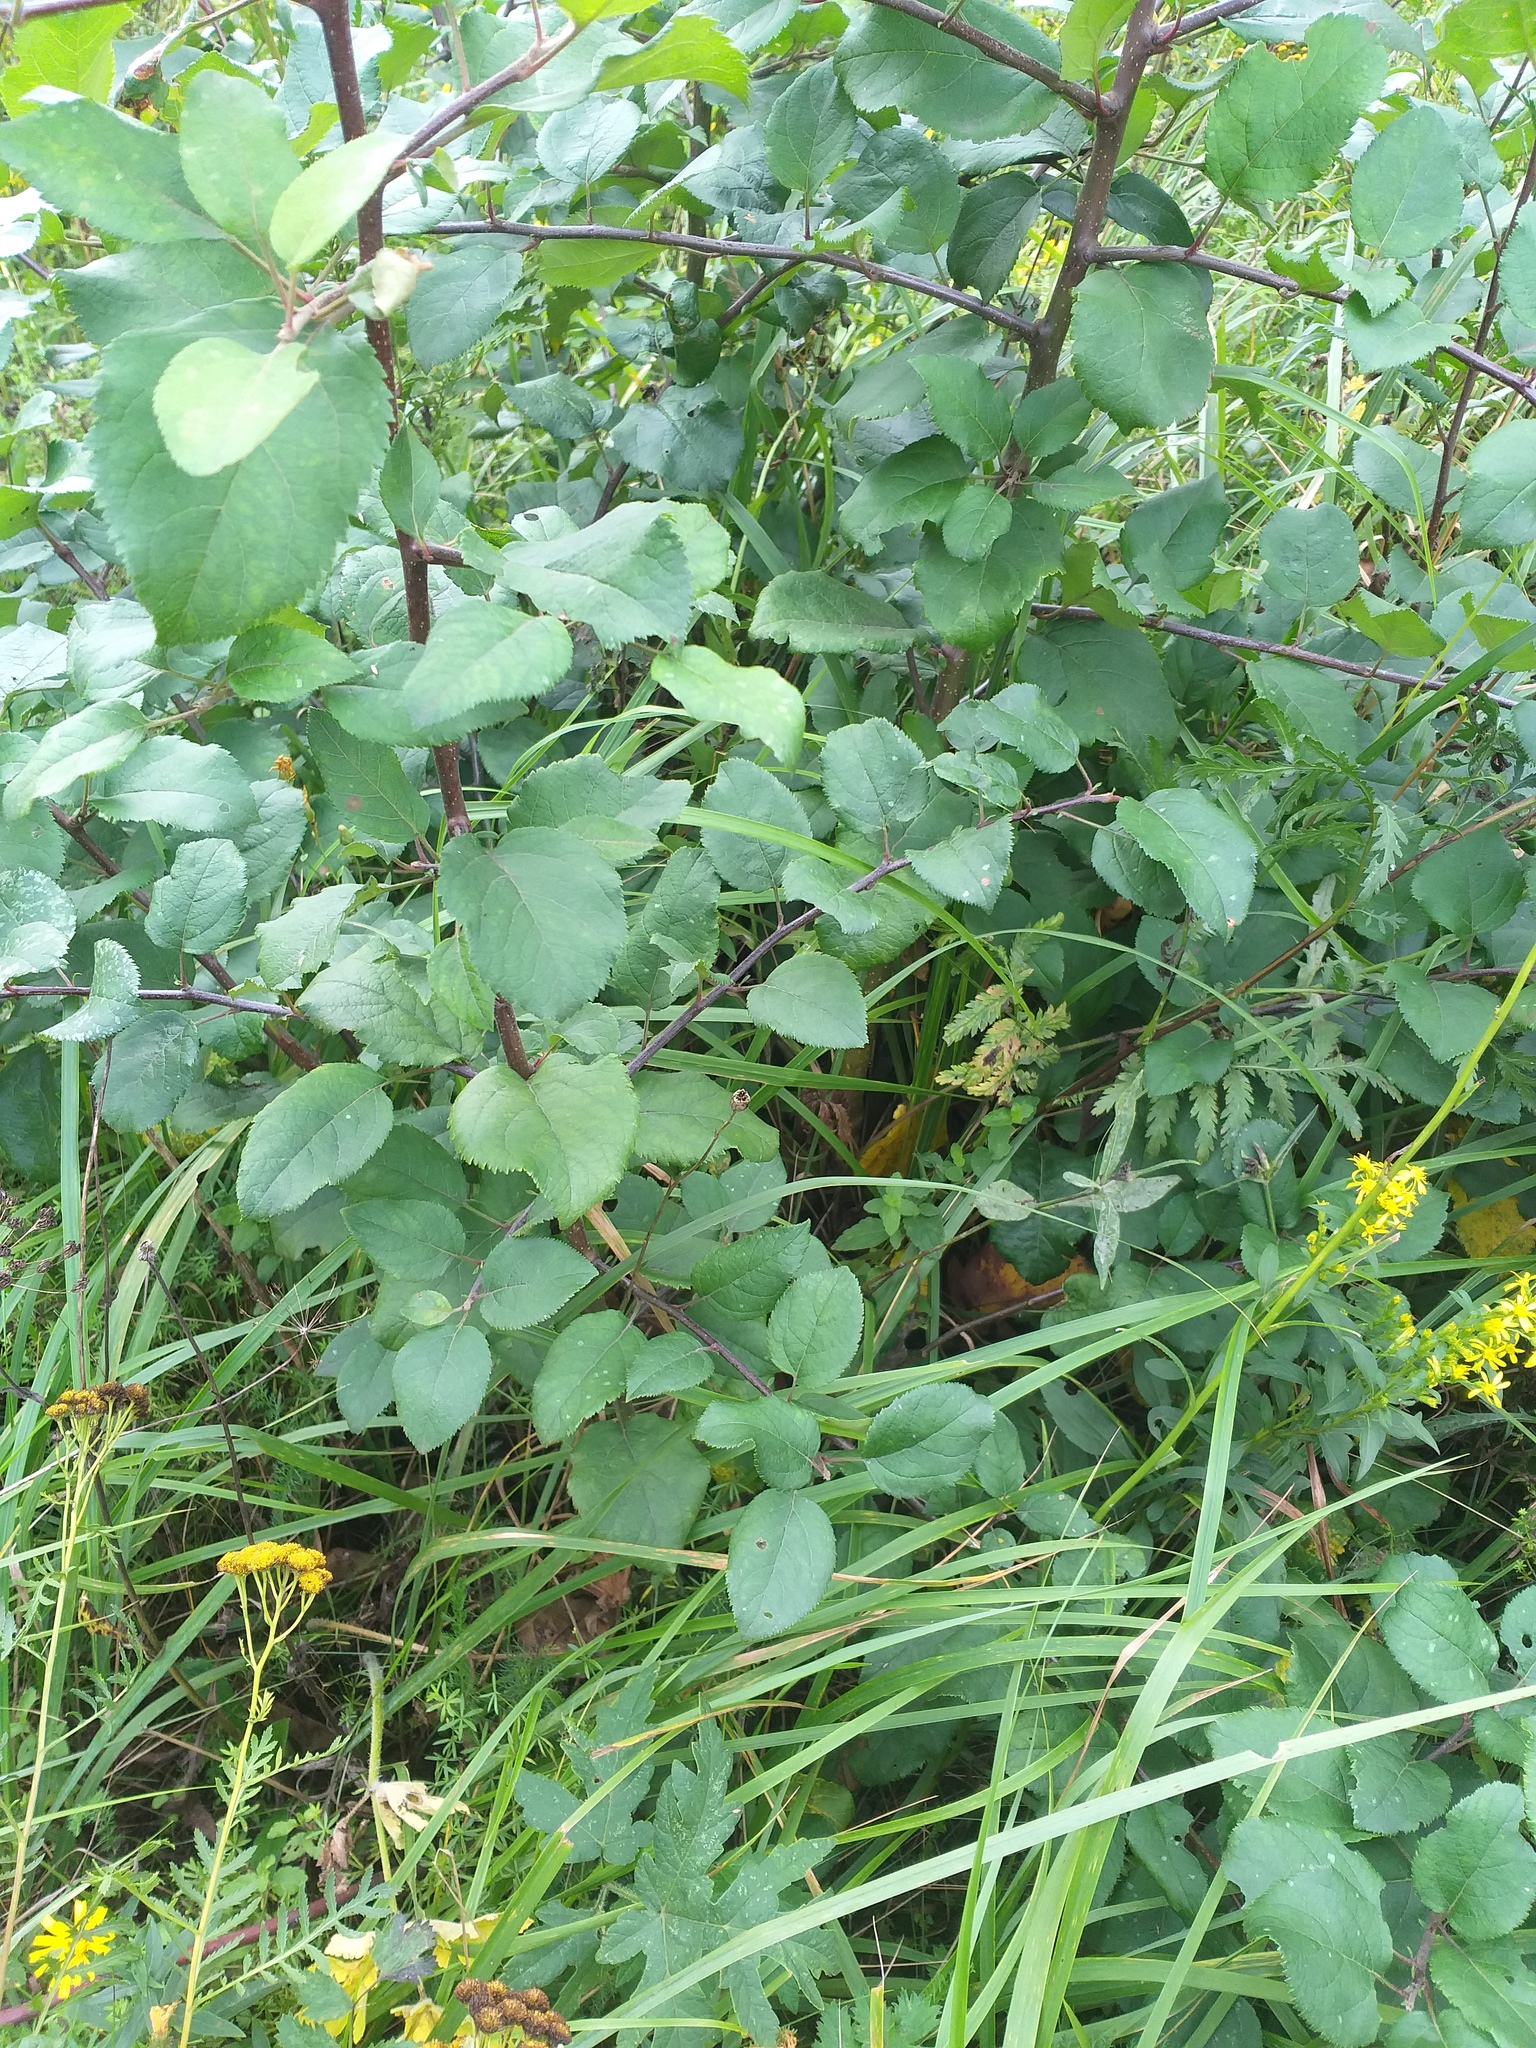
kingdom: Plantae
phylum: Tracheophyta
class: Magnoliopsida
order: Rosales
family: Rosaceae
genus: Malus
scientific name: Malus domestica
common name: Apple
